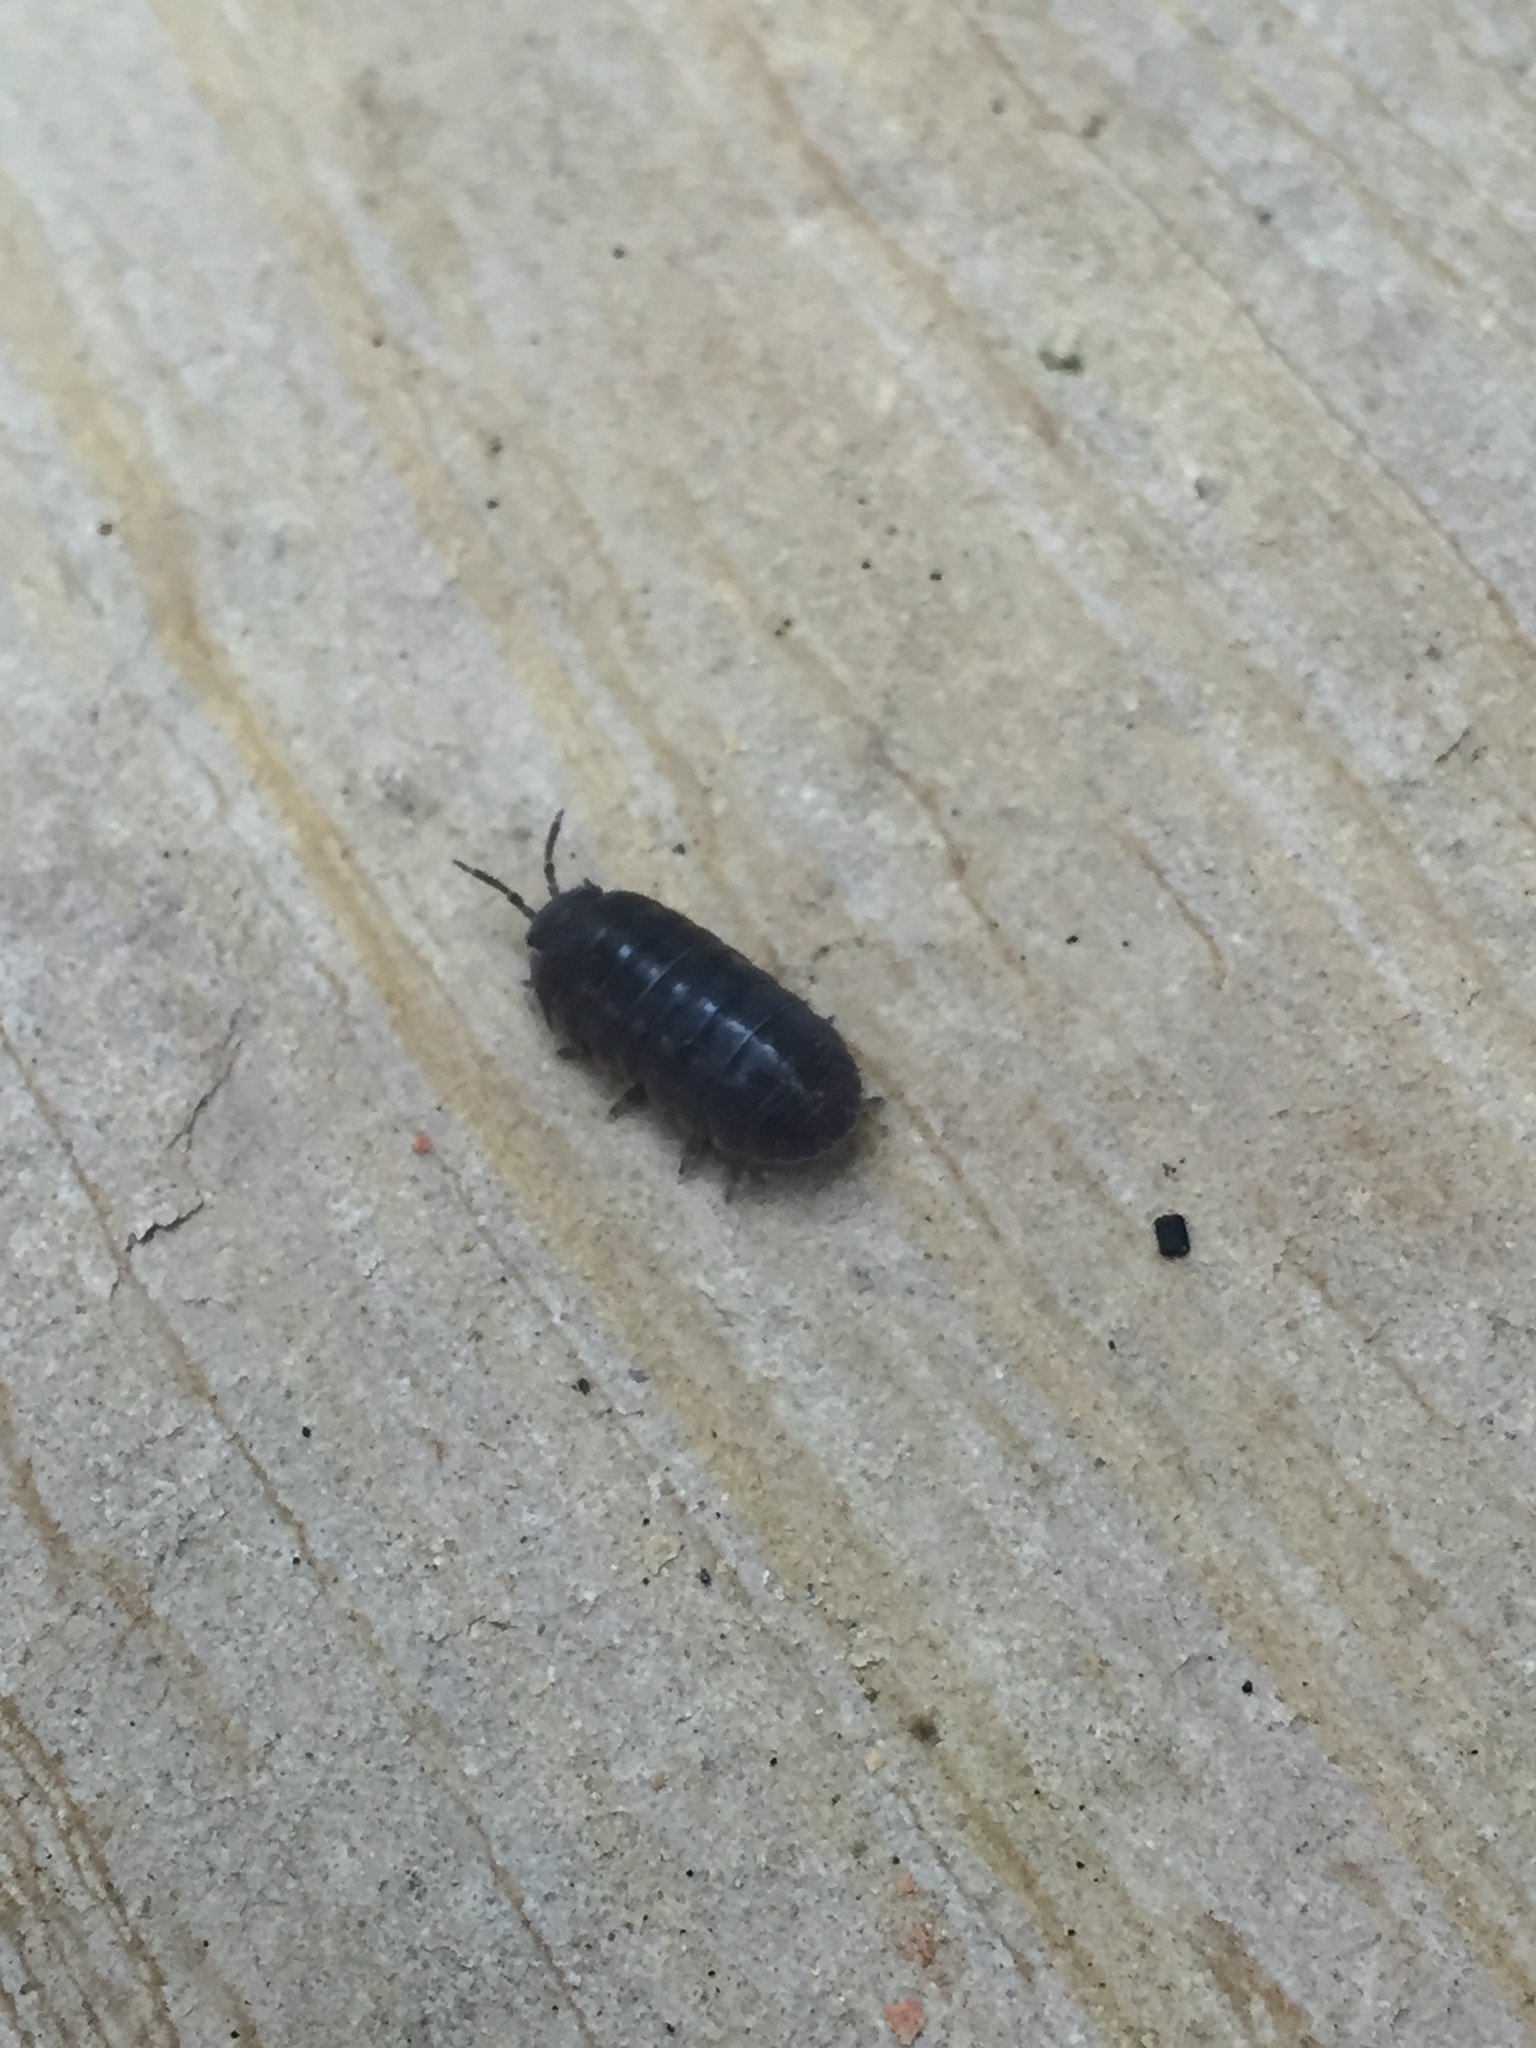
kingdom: Animalia
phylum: Arthropoda
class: Malacostraca
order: Isopoda
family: Armadillidiidae
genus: Armadillidium
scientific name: Armadillidium vulgare
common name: Common pill woodlouse
